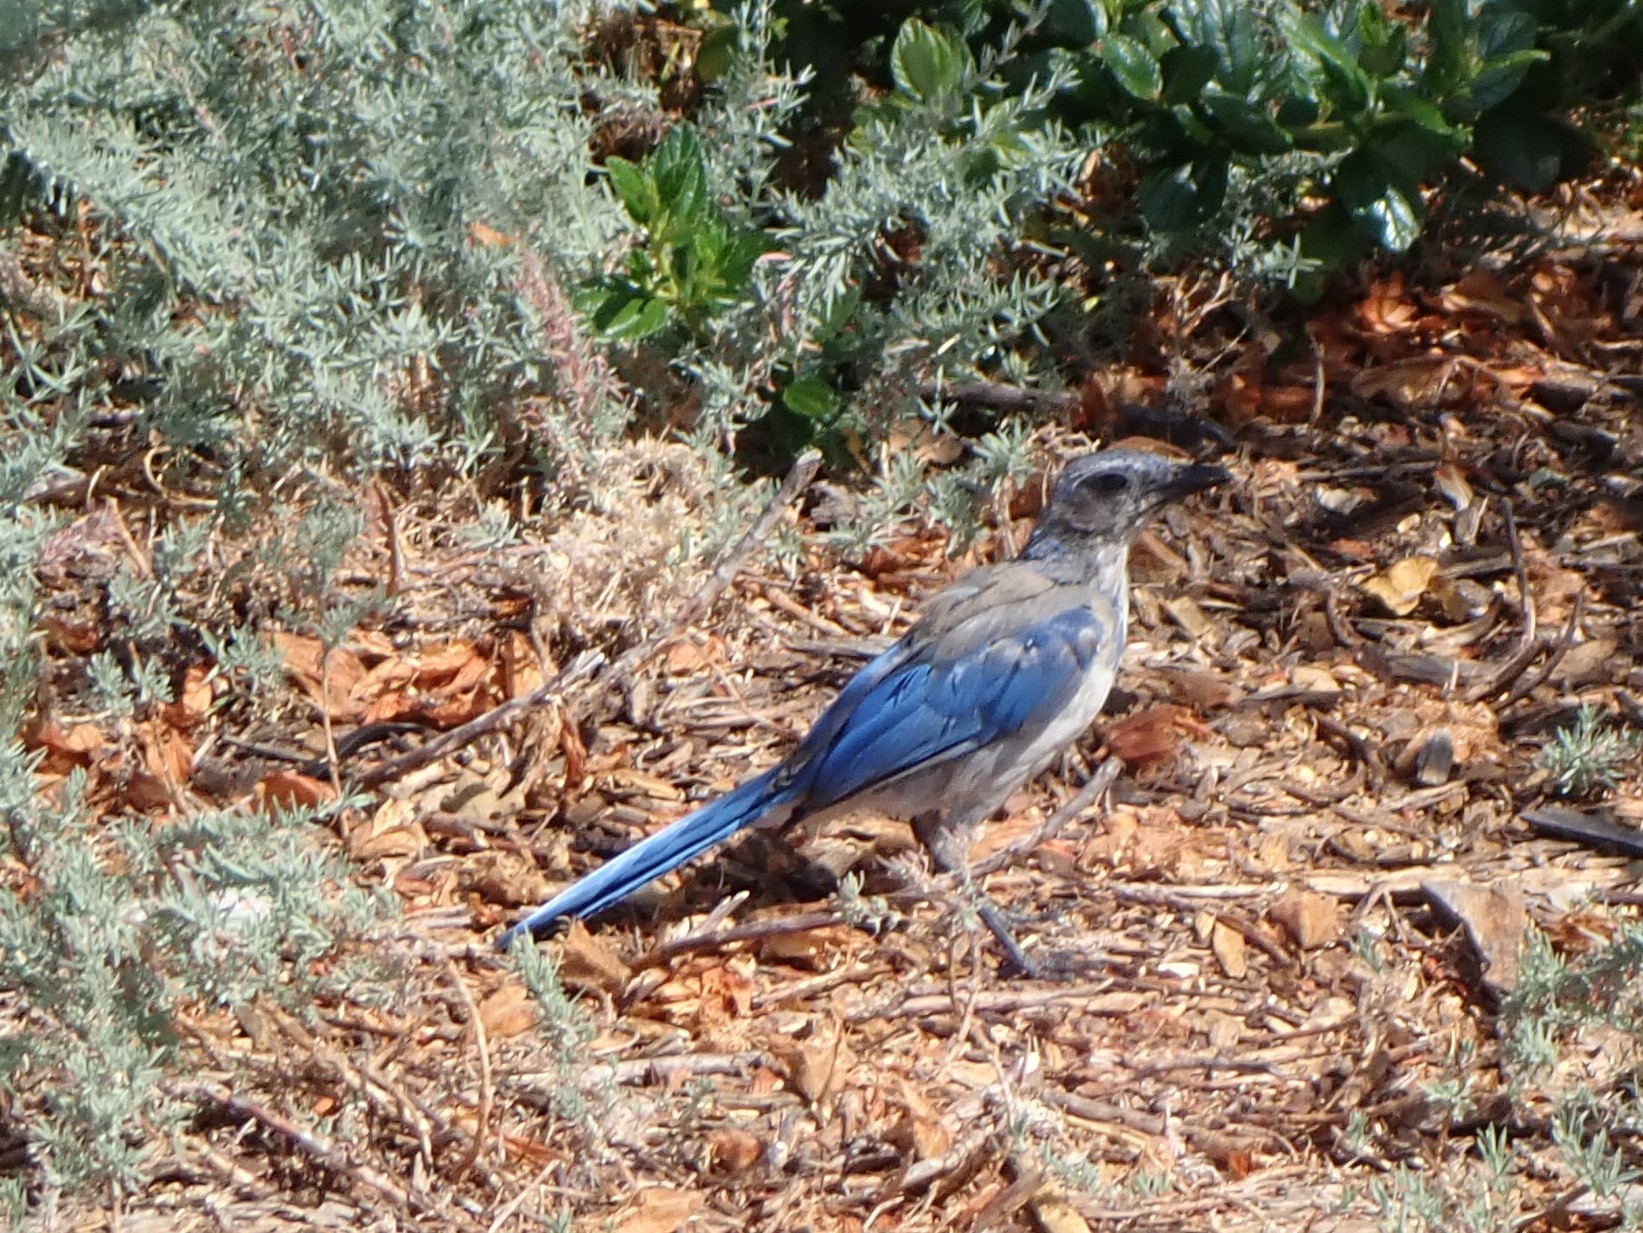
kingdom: Animalia
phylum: Chordata
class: Aves
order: Passeriformes
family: Corvidae
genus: Aphelocoma
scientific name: Aphelocoma californica
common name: California scrub-jay
